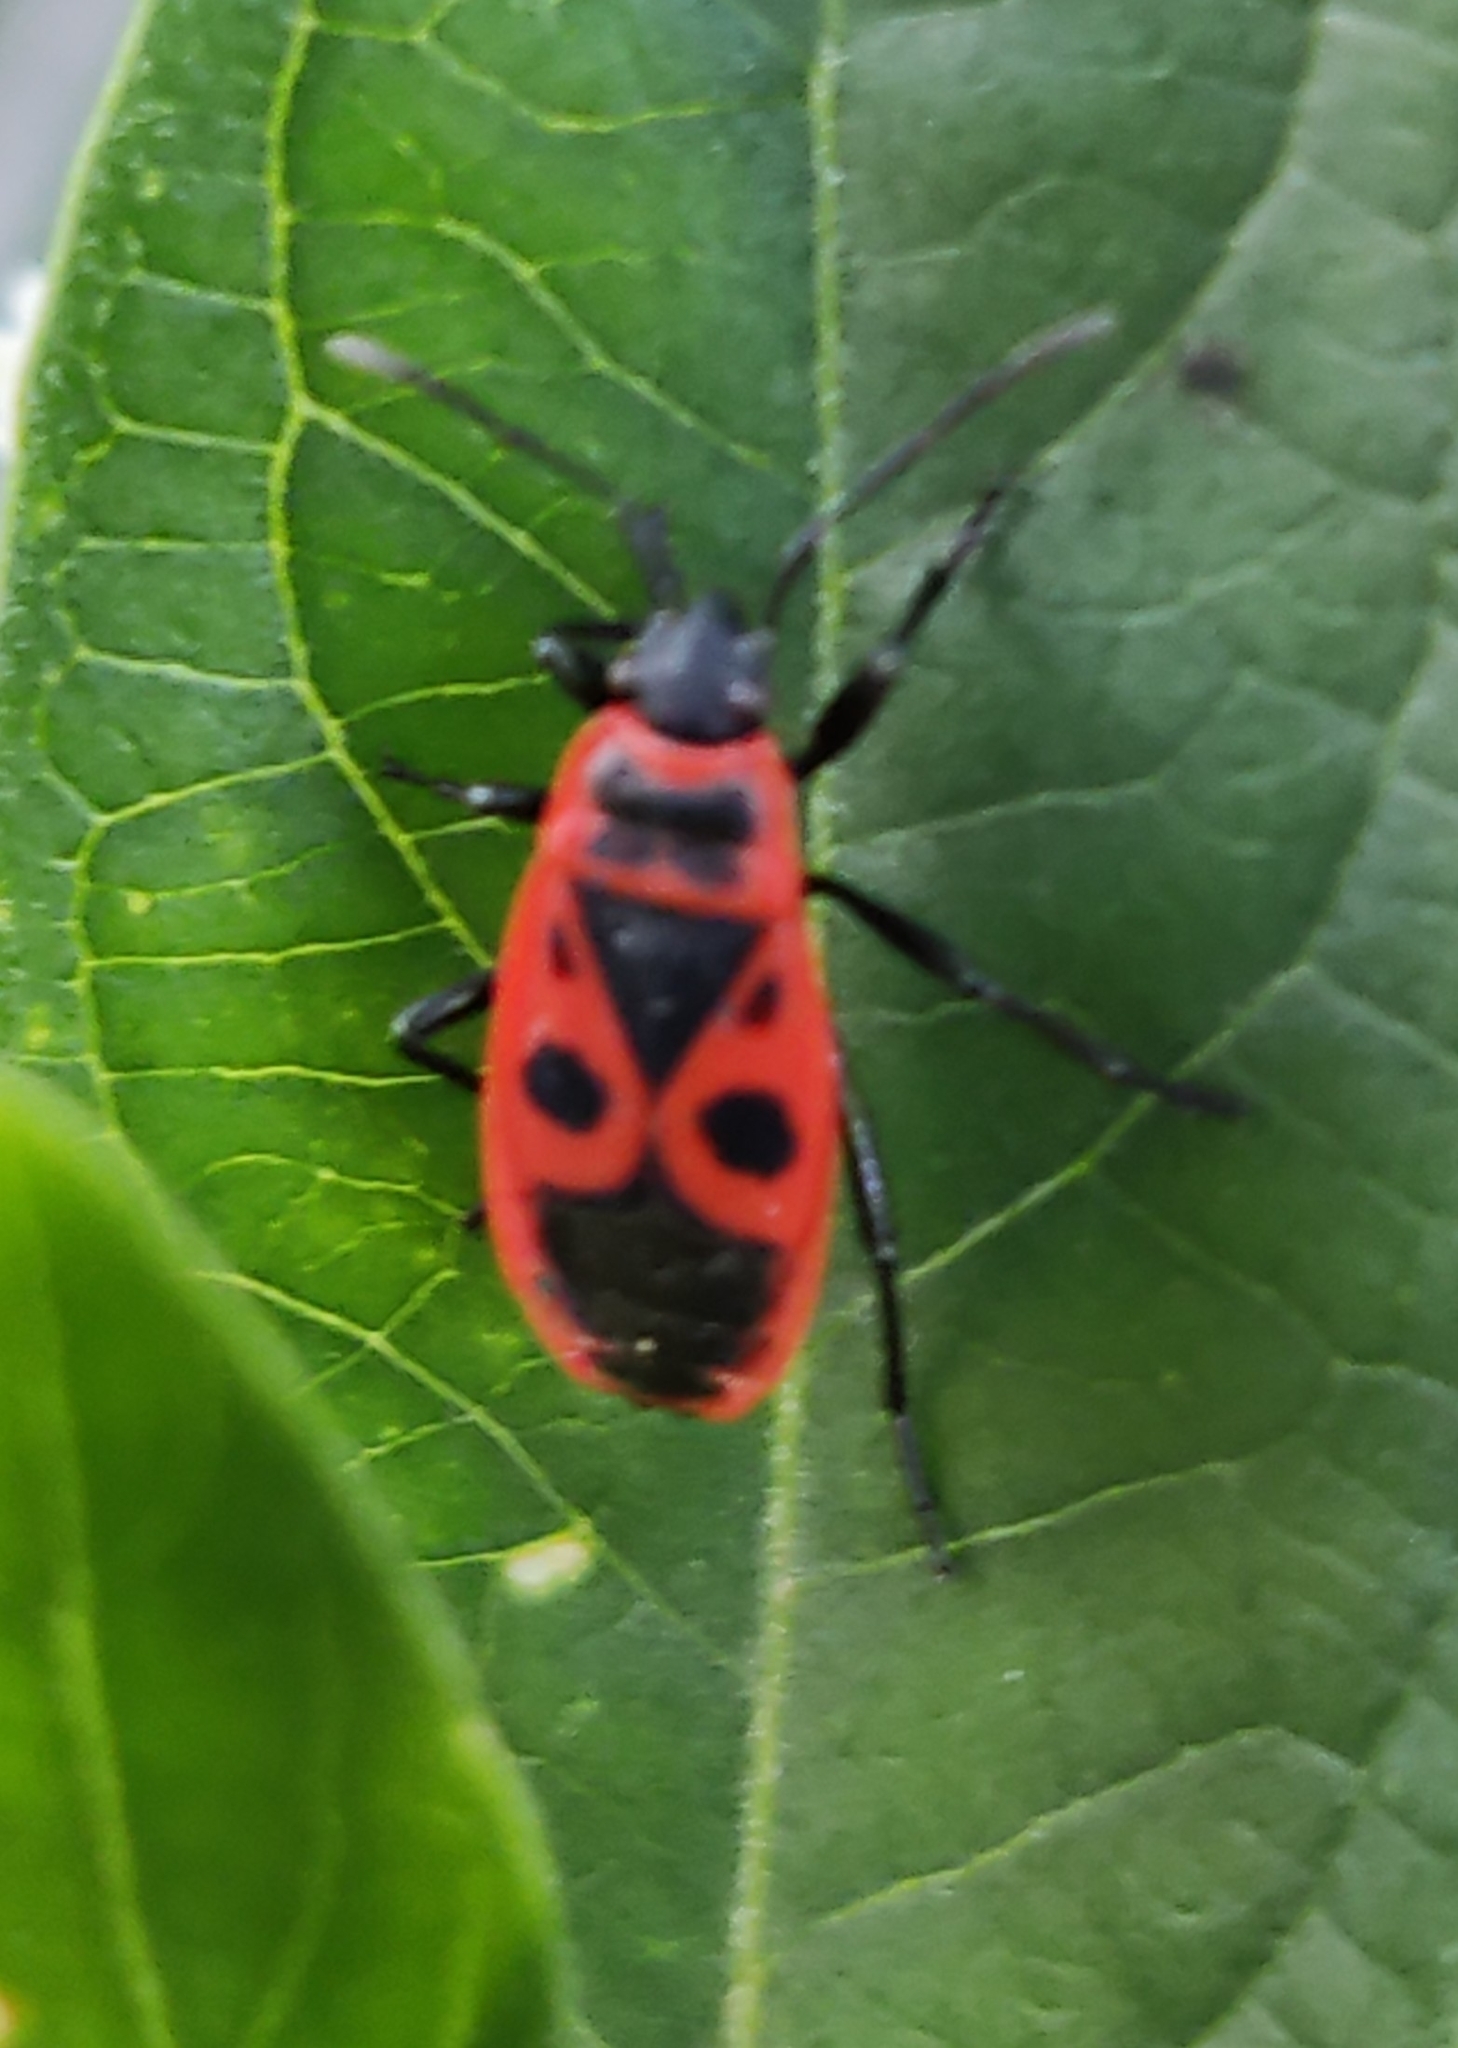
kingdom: Animalia
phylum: Arthropoda
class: Insecta
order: Hemiptera
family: Pyrrhocoridae
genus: Pyrrhocoris
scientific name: Pyrrhocoris apterus
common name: Firebug
